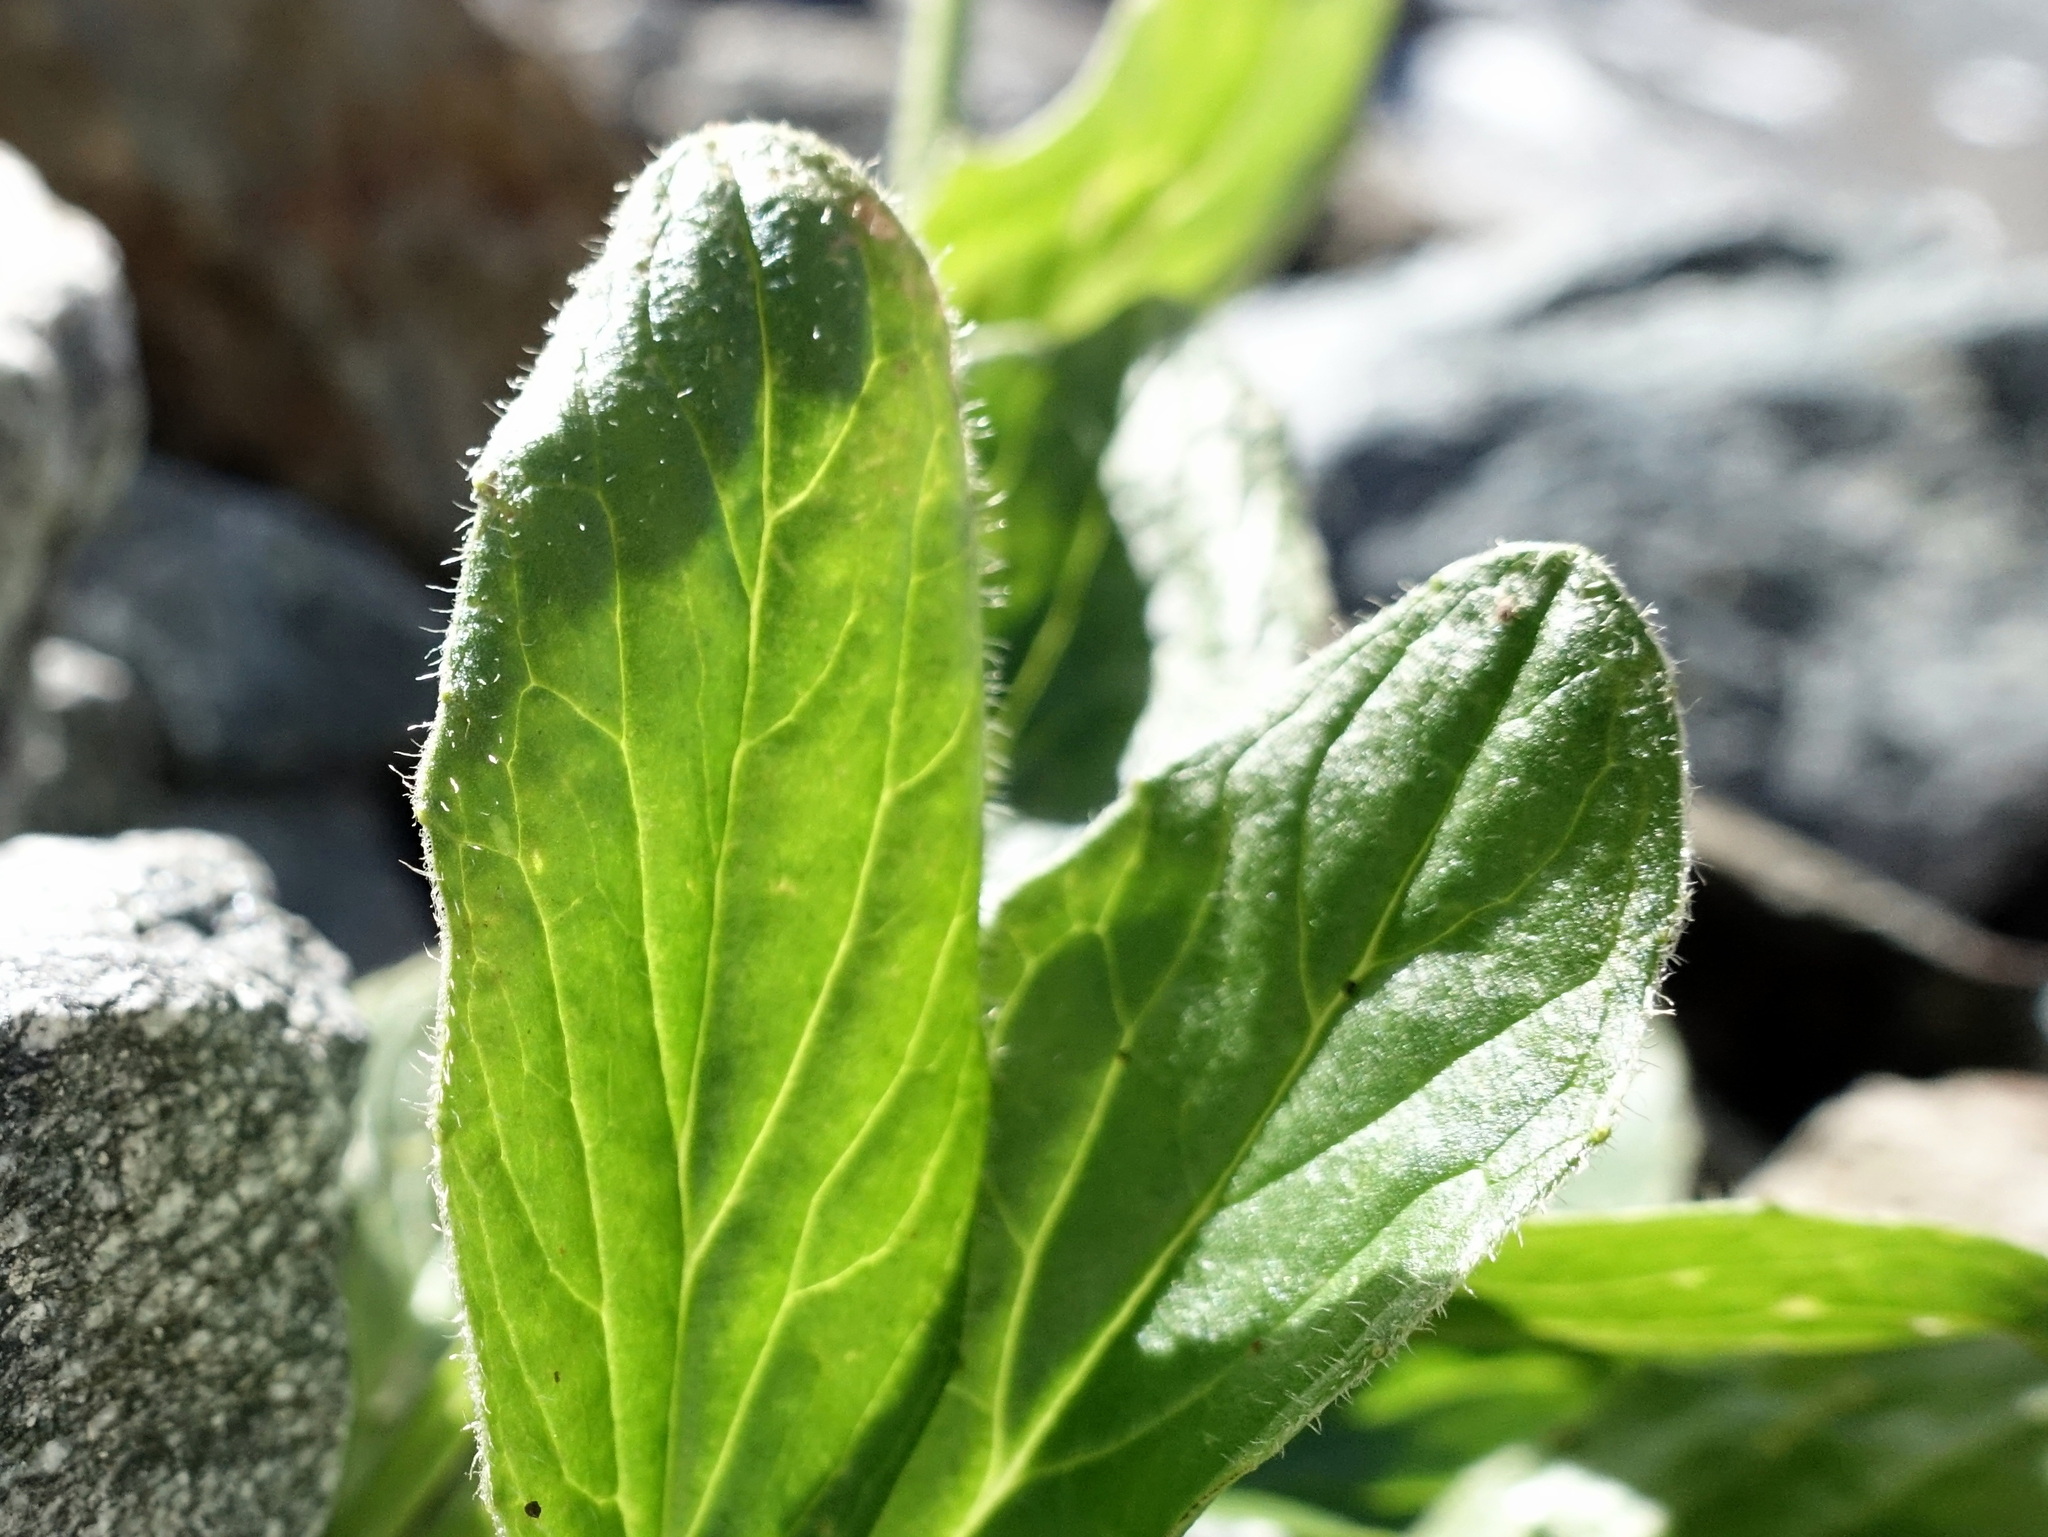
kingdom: Plantae
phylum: Tracheophyta
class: Magnoliopsida
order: Asterales
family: Asteraceae
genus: Doronicum
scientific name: Doronicum clusii
